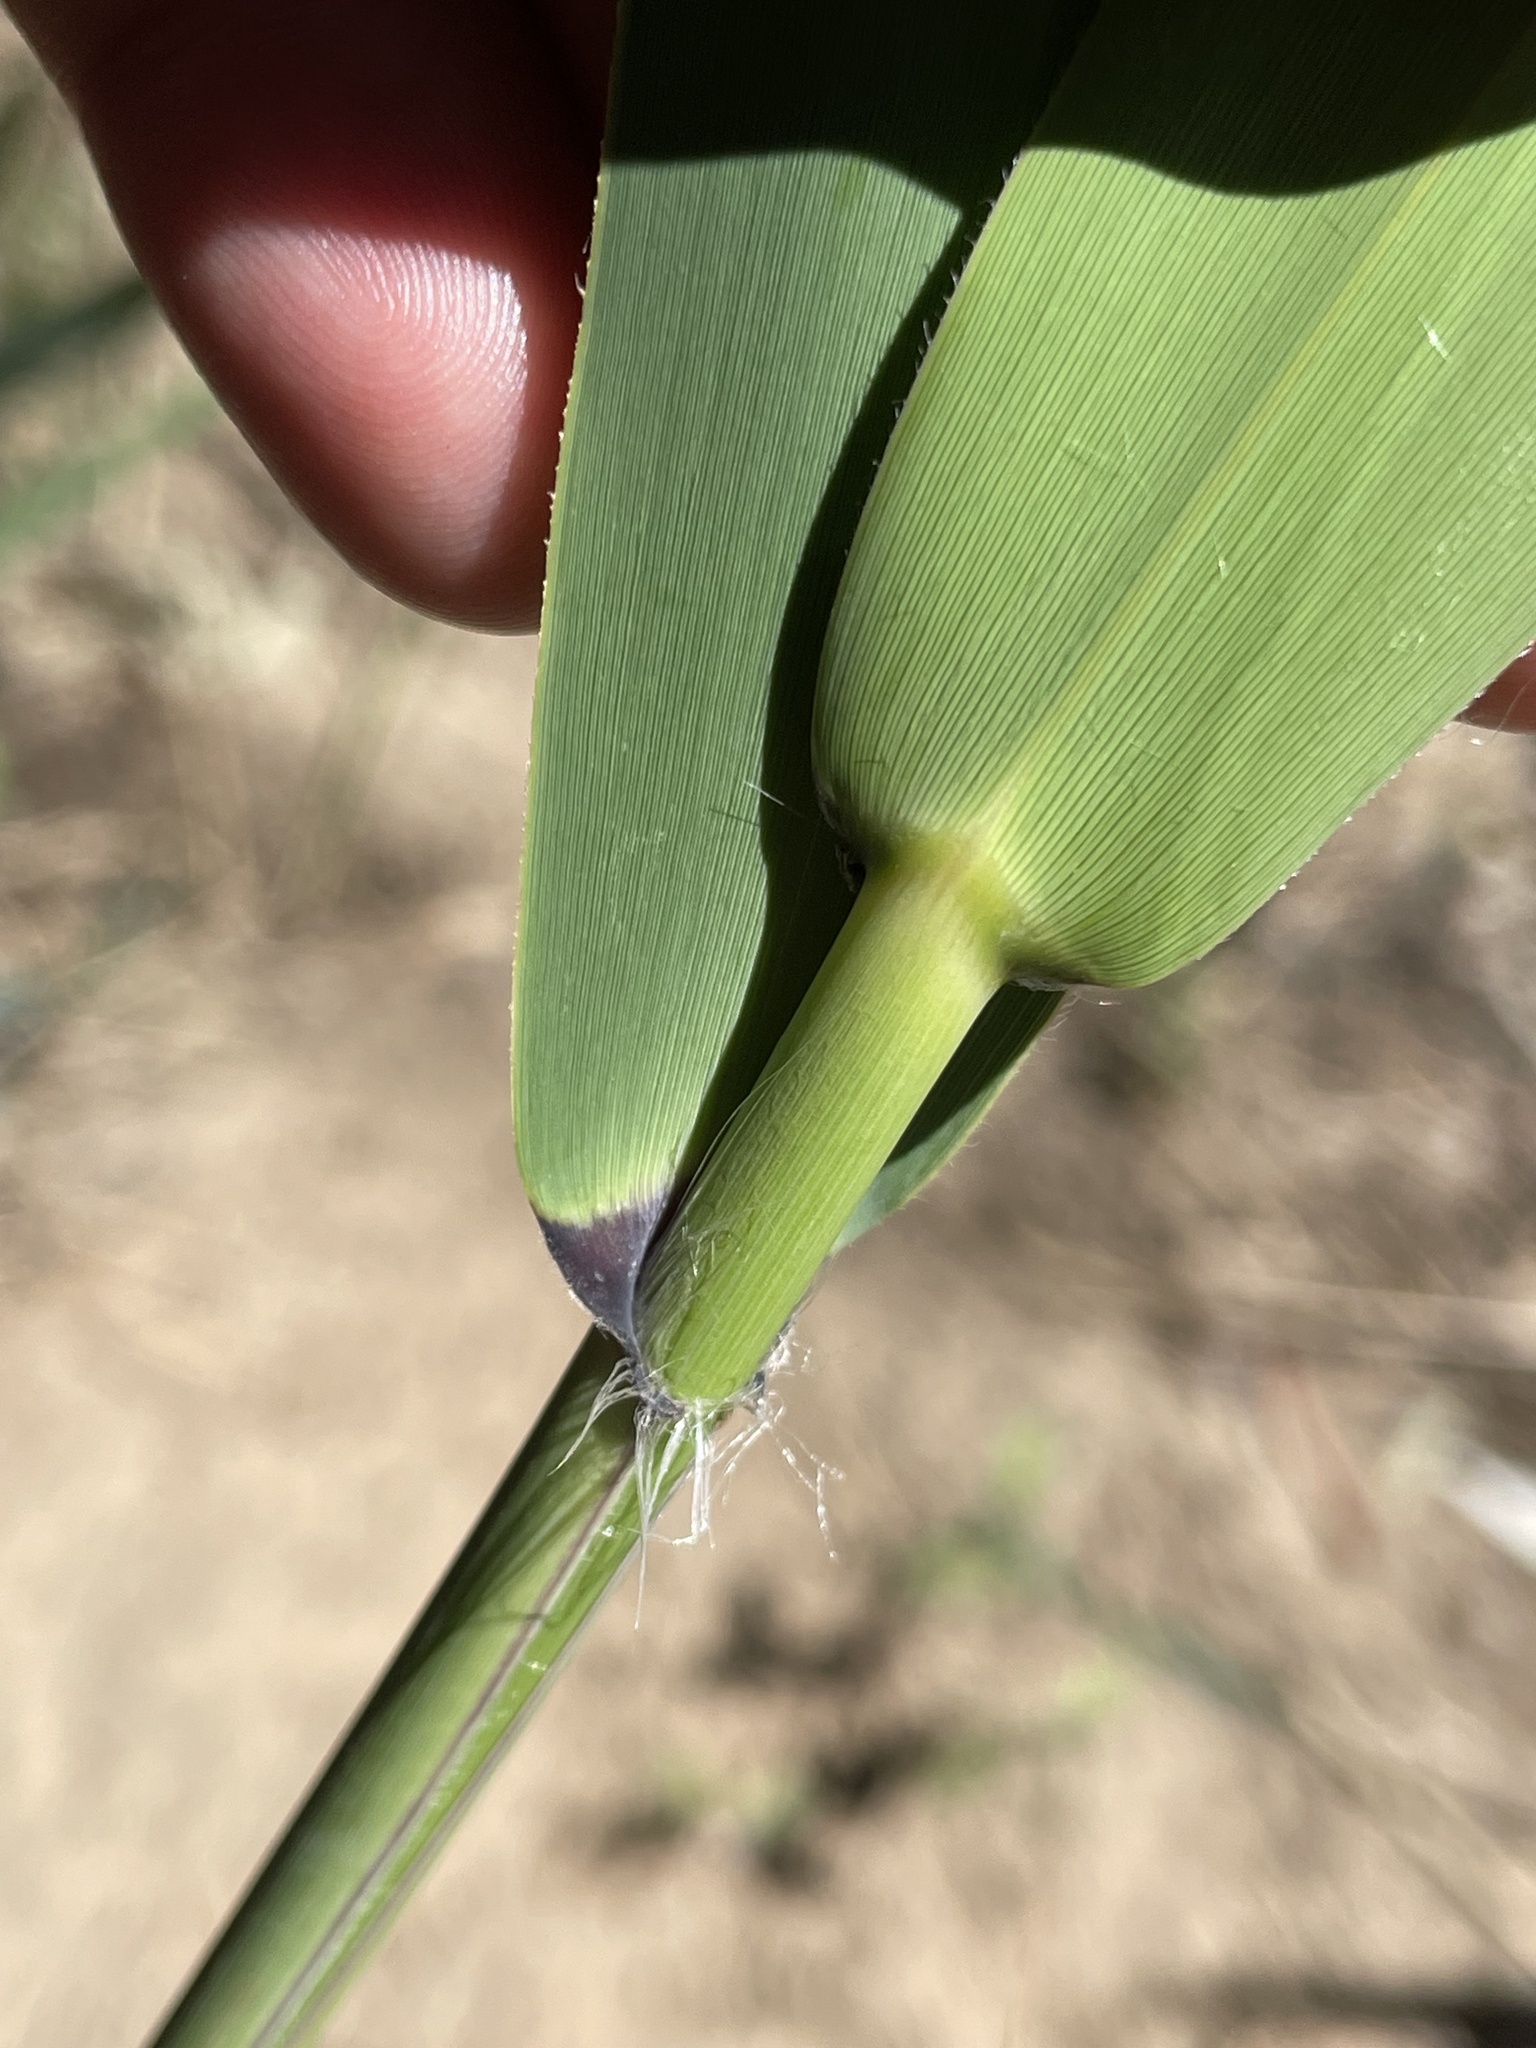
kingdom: Plantae
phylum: Tracheophyta
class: Liliopsida
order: Poales
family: Poaceae
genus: Phragmites
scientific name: Phragmites australis
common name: Common reed
